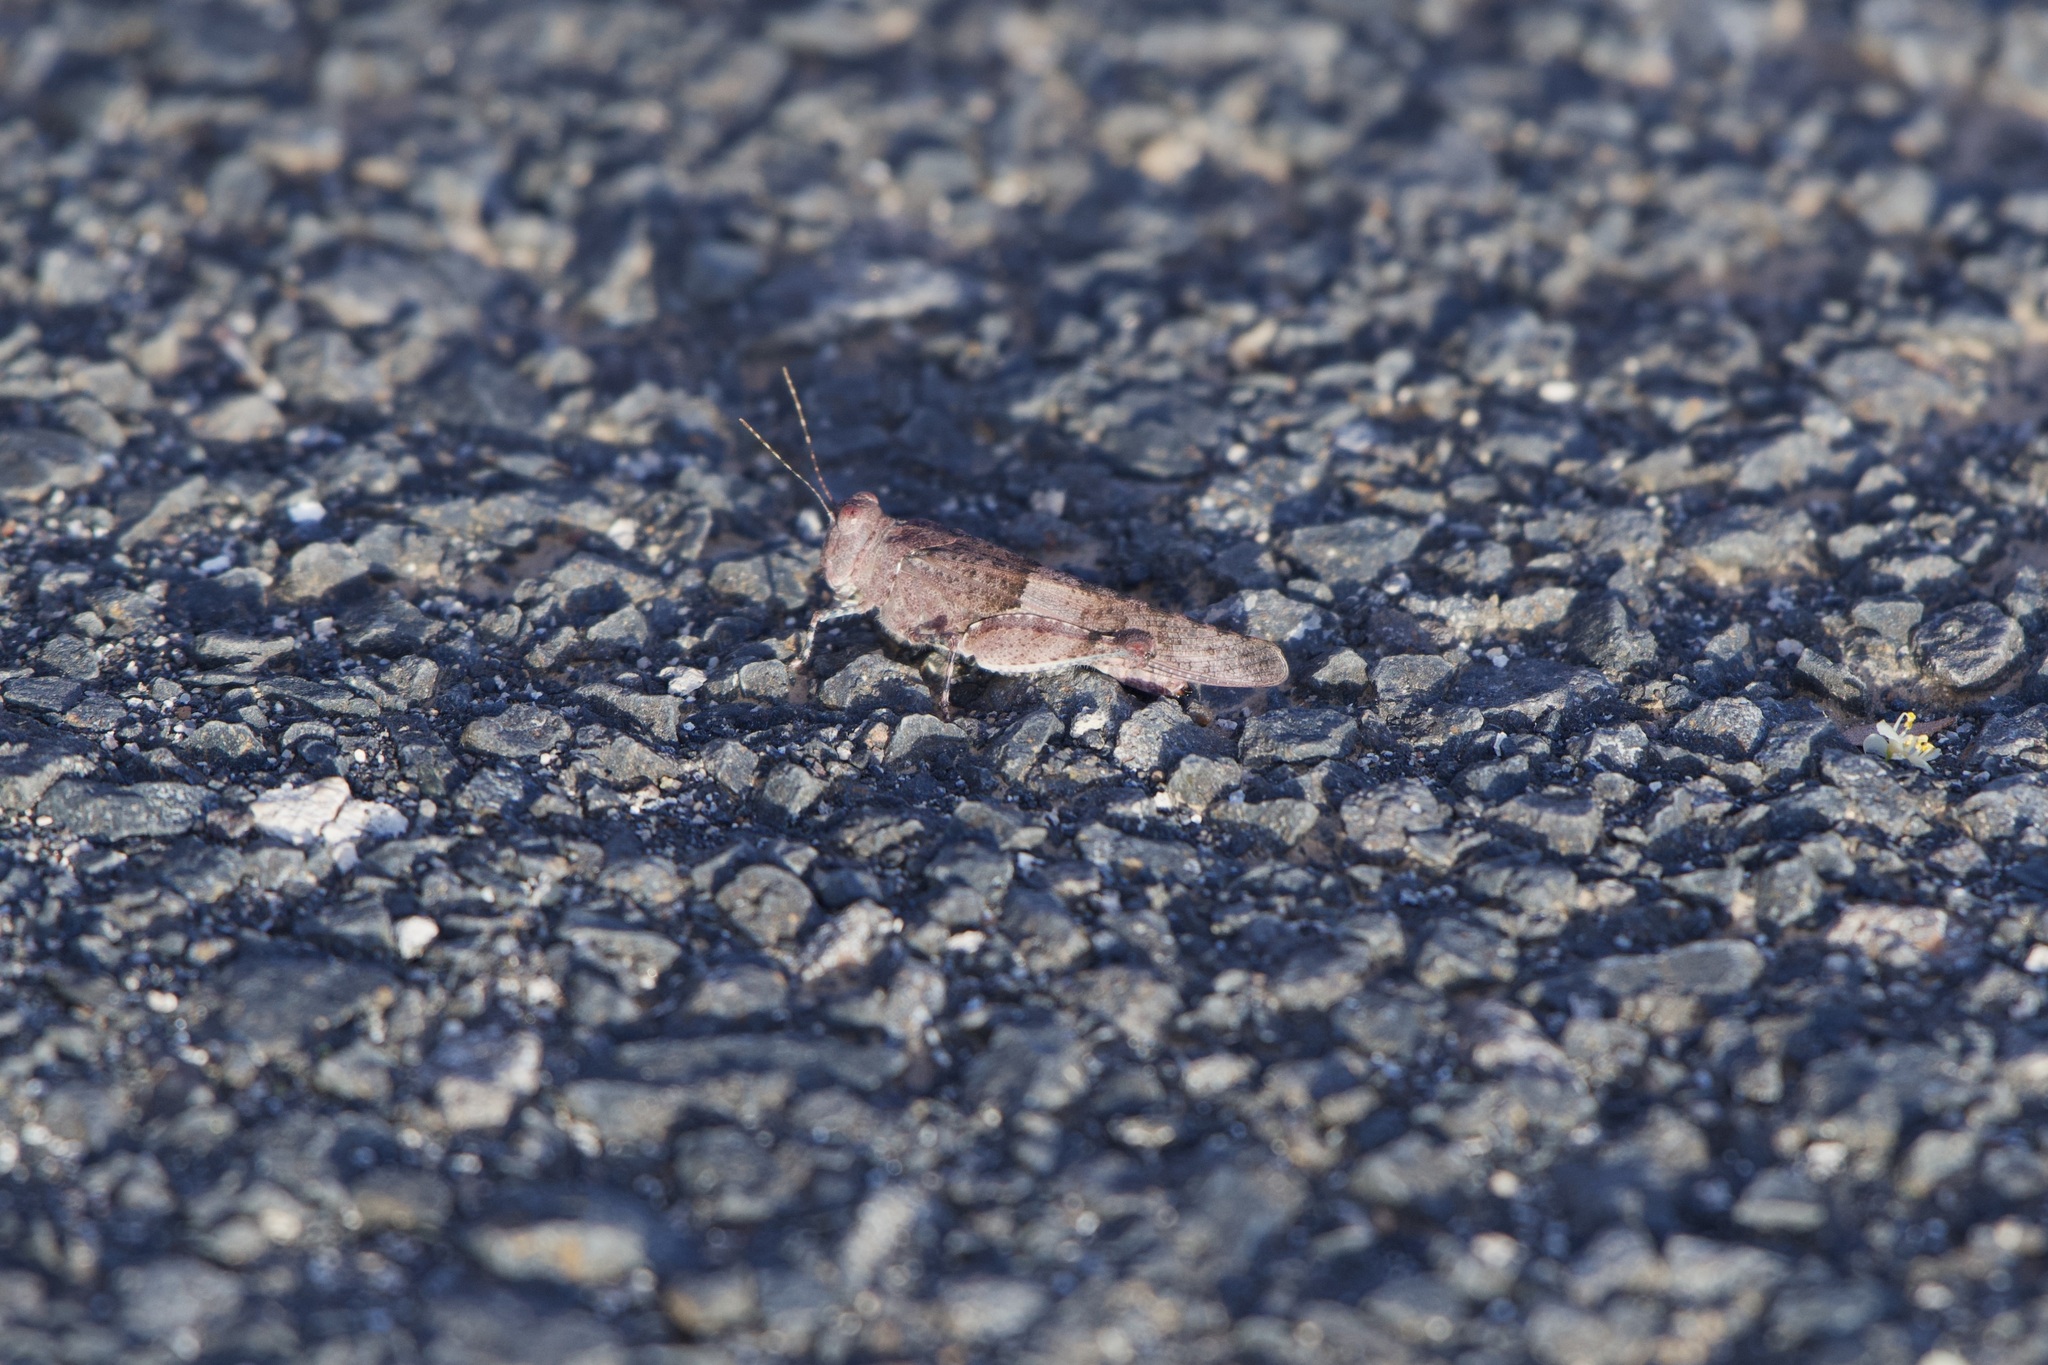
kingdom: Animalia
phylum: Arthropoda
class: Insecta
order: Orthoptera
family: Acrididae
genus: Sphingonotus
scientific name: Sphingonotus pachecoi
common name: Lanzarote sand grasshopper
